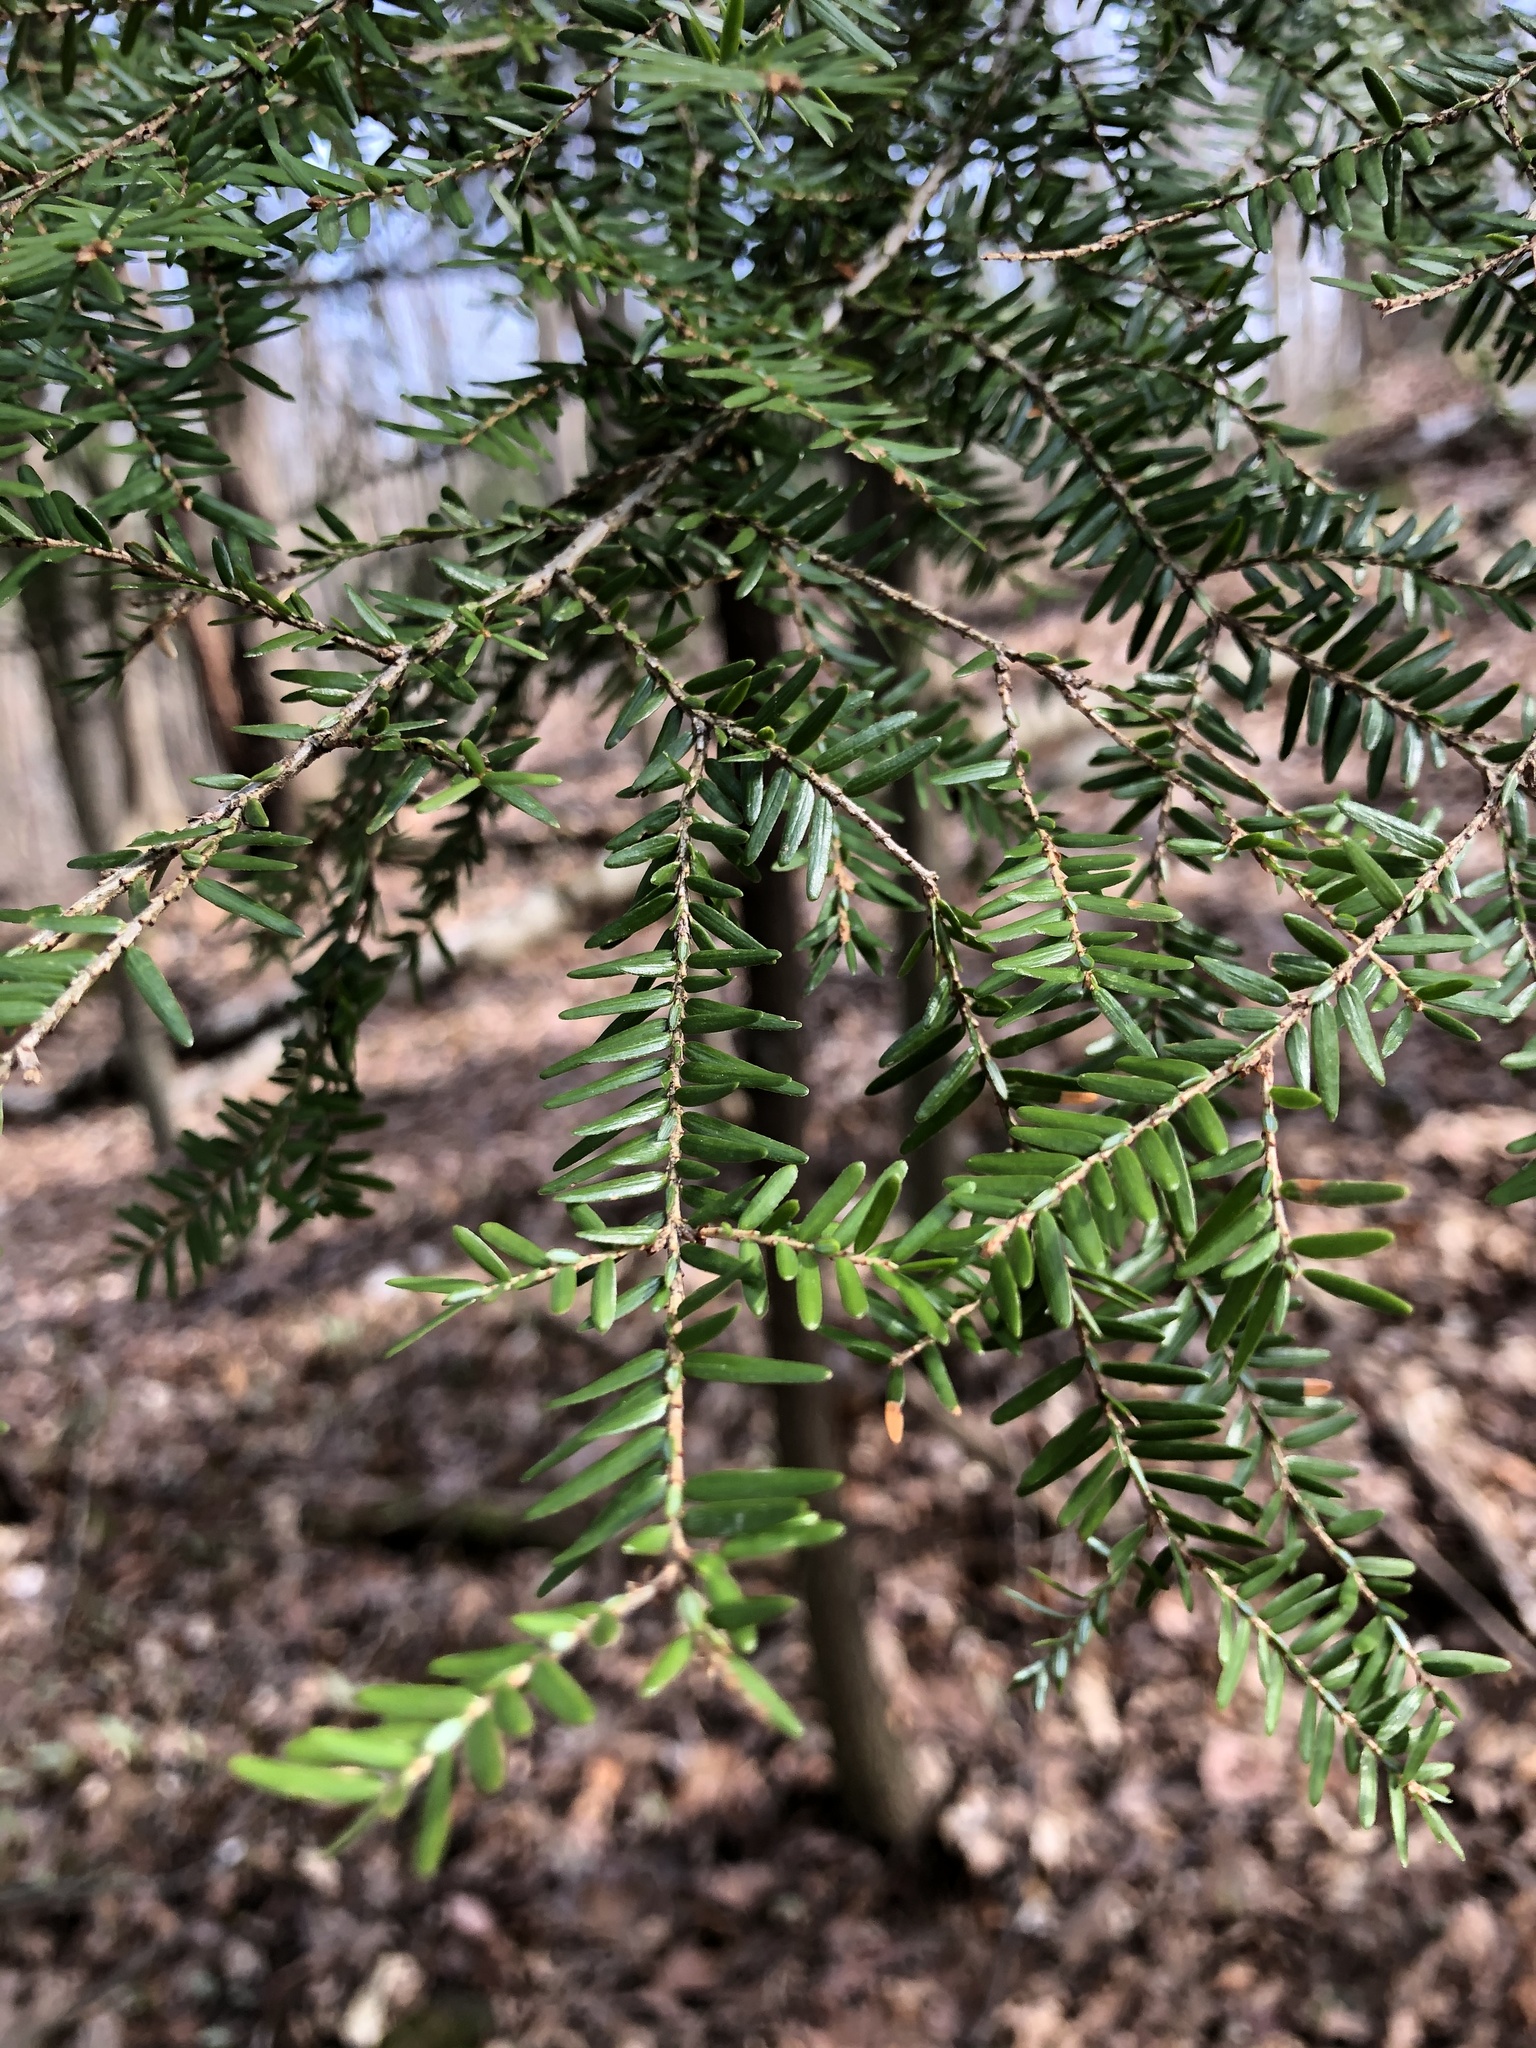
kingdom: Plantae
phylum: Tracheophyta
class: Pinopsida
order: Pinales
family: Pinaceae
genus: Tsuga
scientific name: Tsuga canadensis
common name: Eastern hemlock
